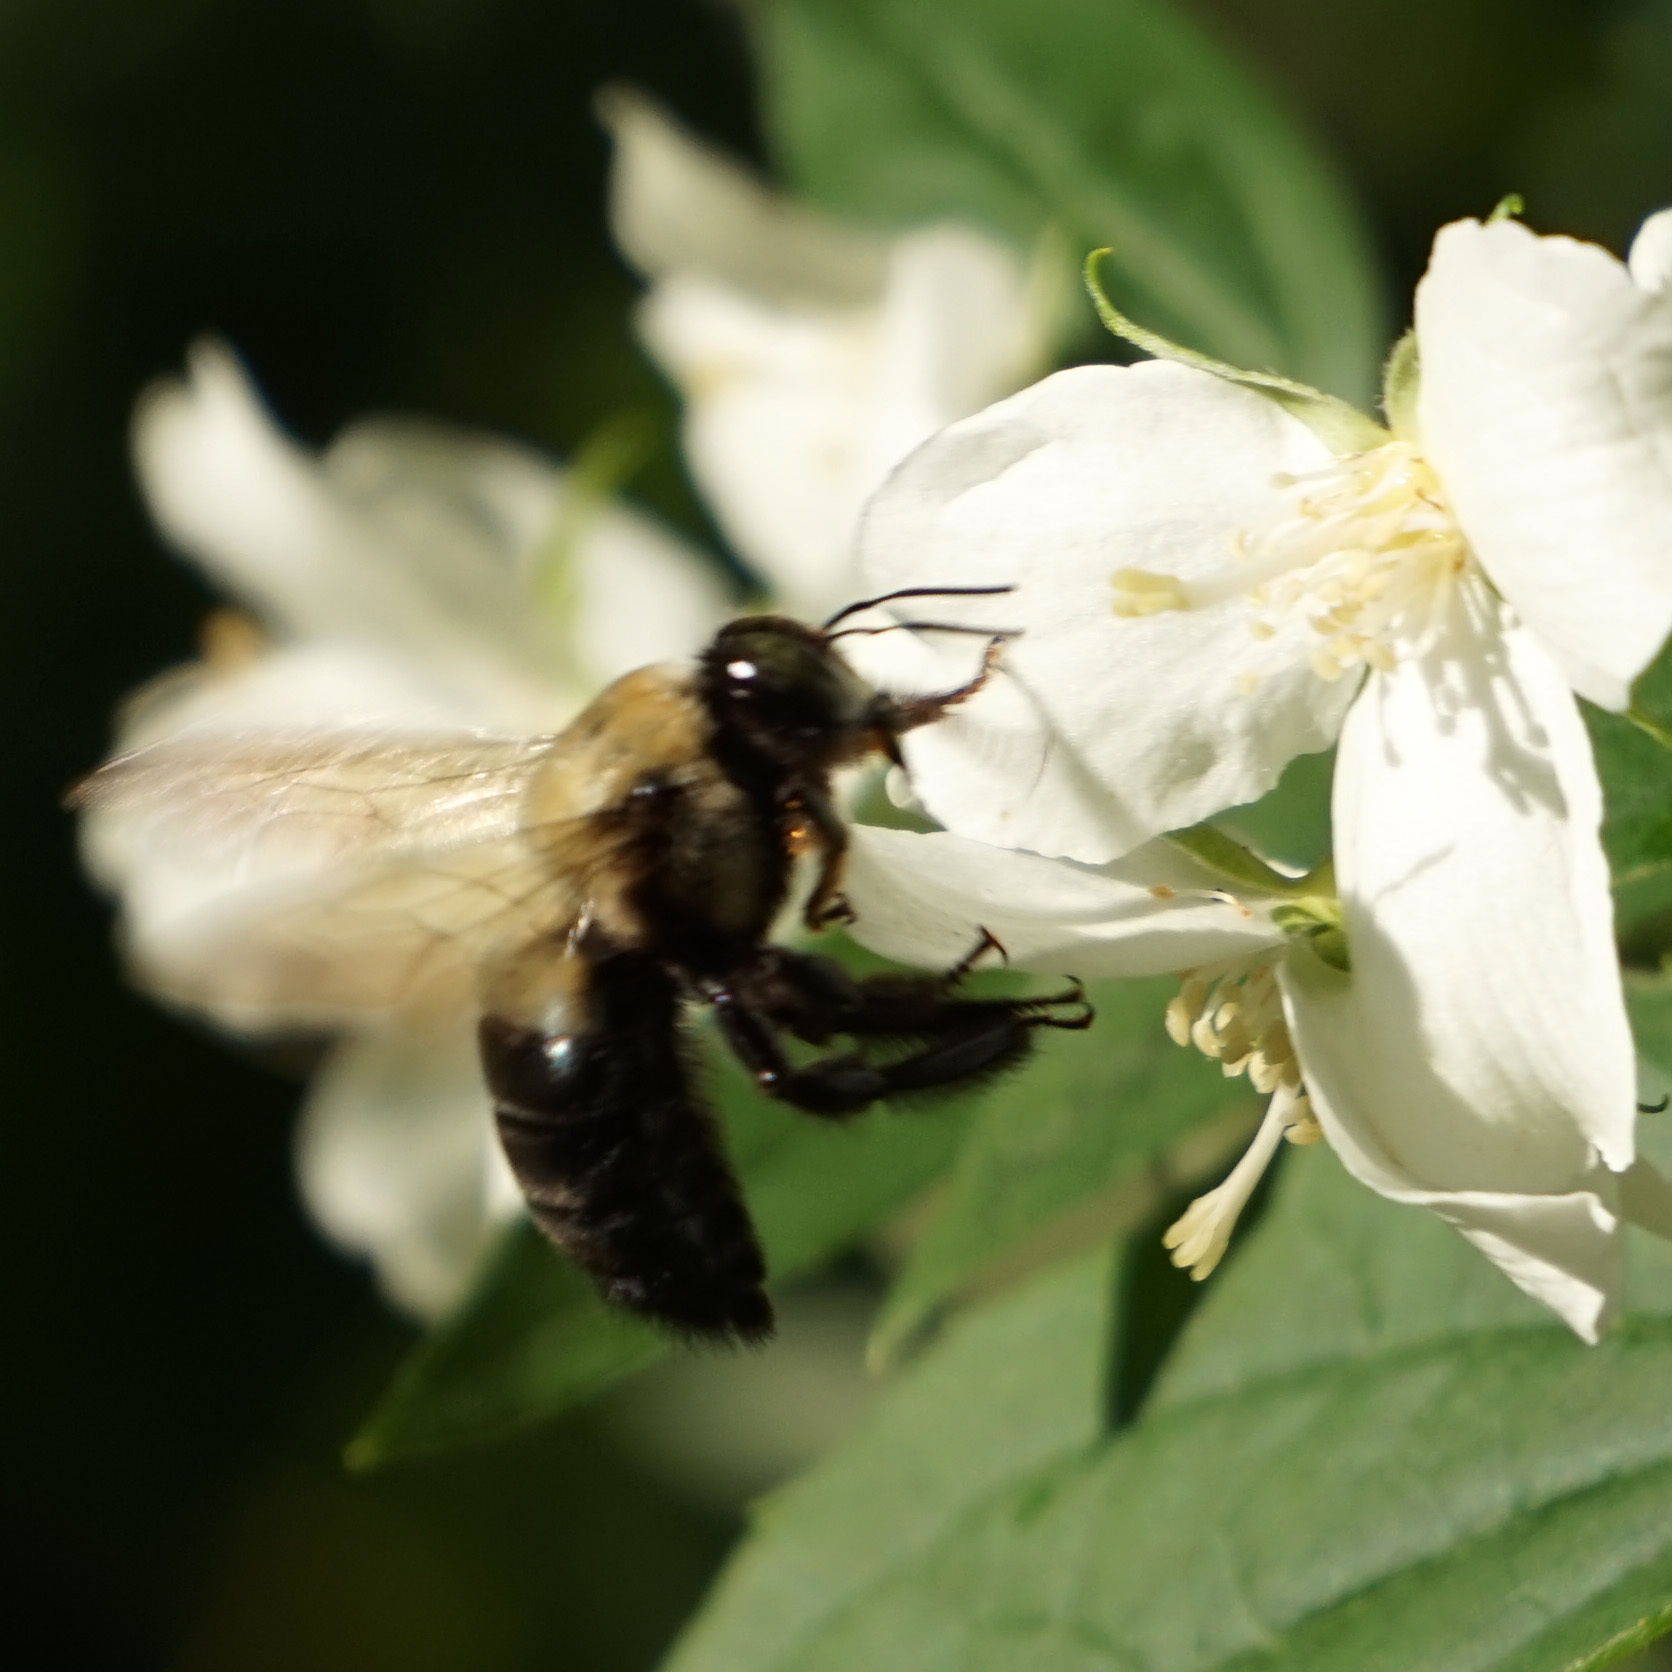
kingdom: Animalia
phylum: Arthropoda
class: Insecta
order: Hymenoptera
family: Apidae
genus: Xylocopa
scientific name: Xylocopa virginica
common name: Carpenter bee
